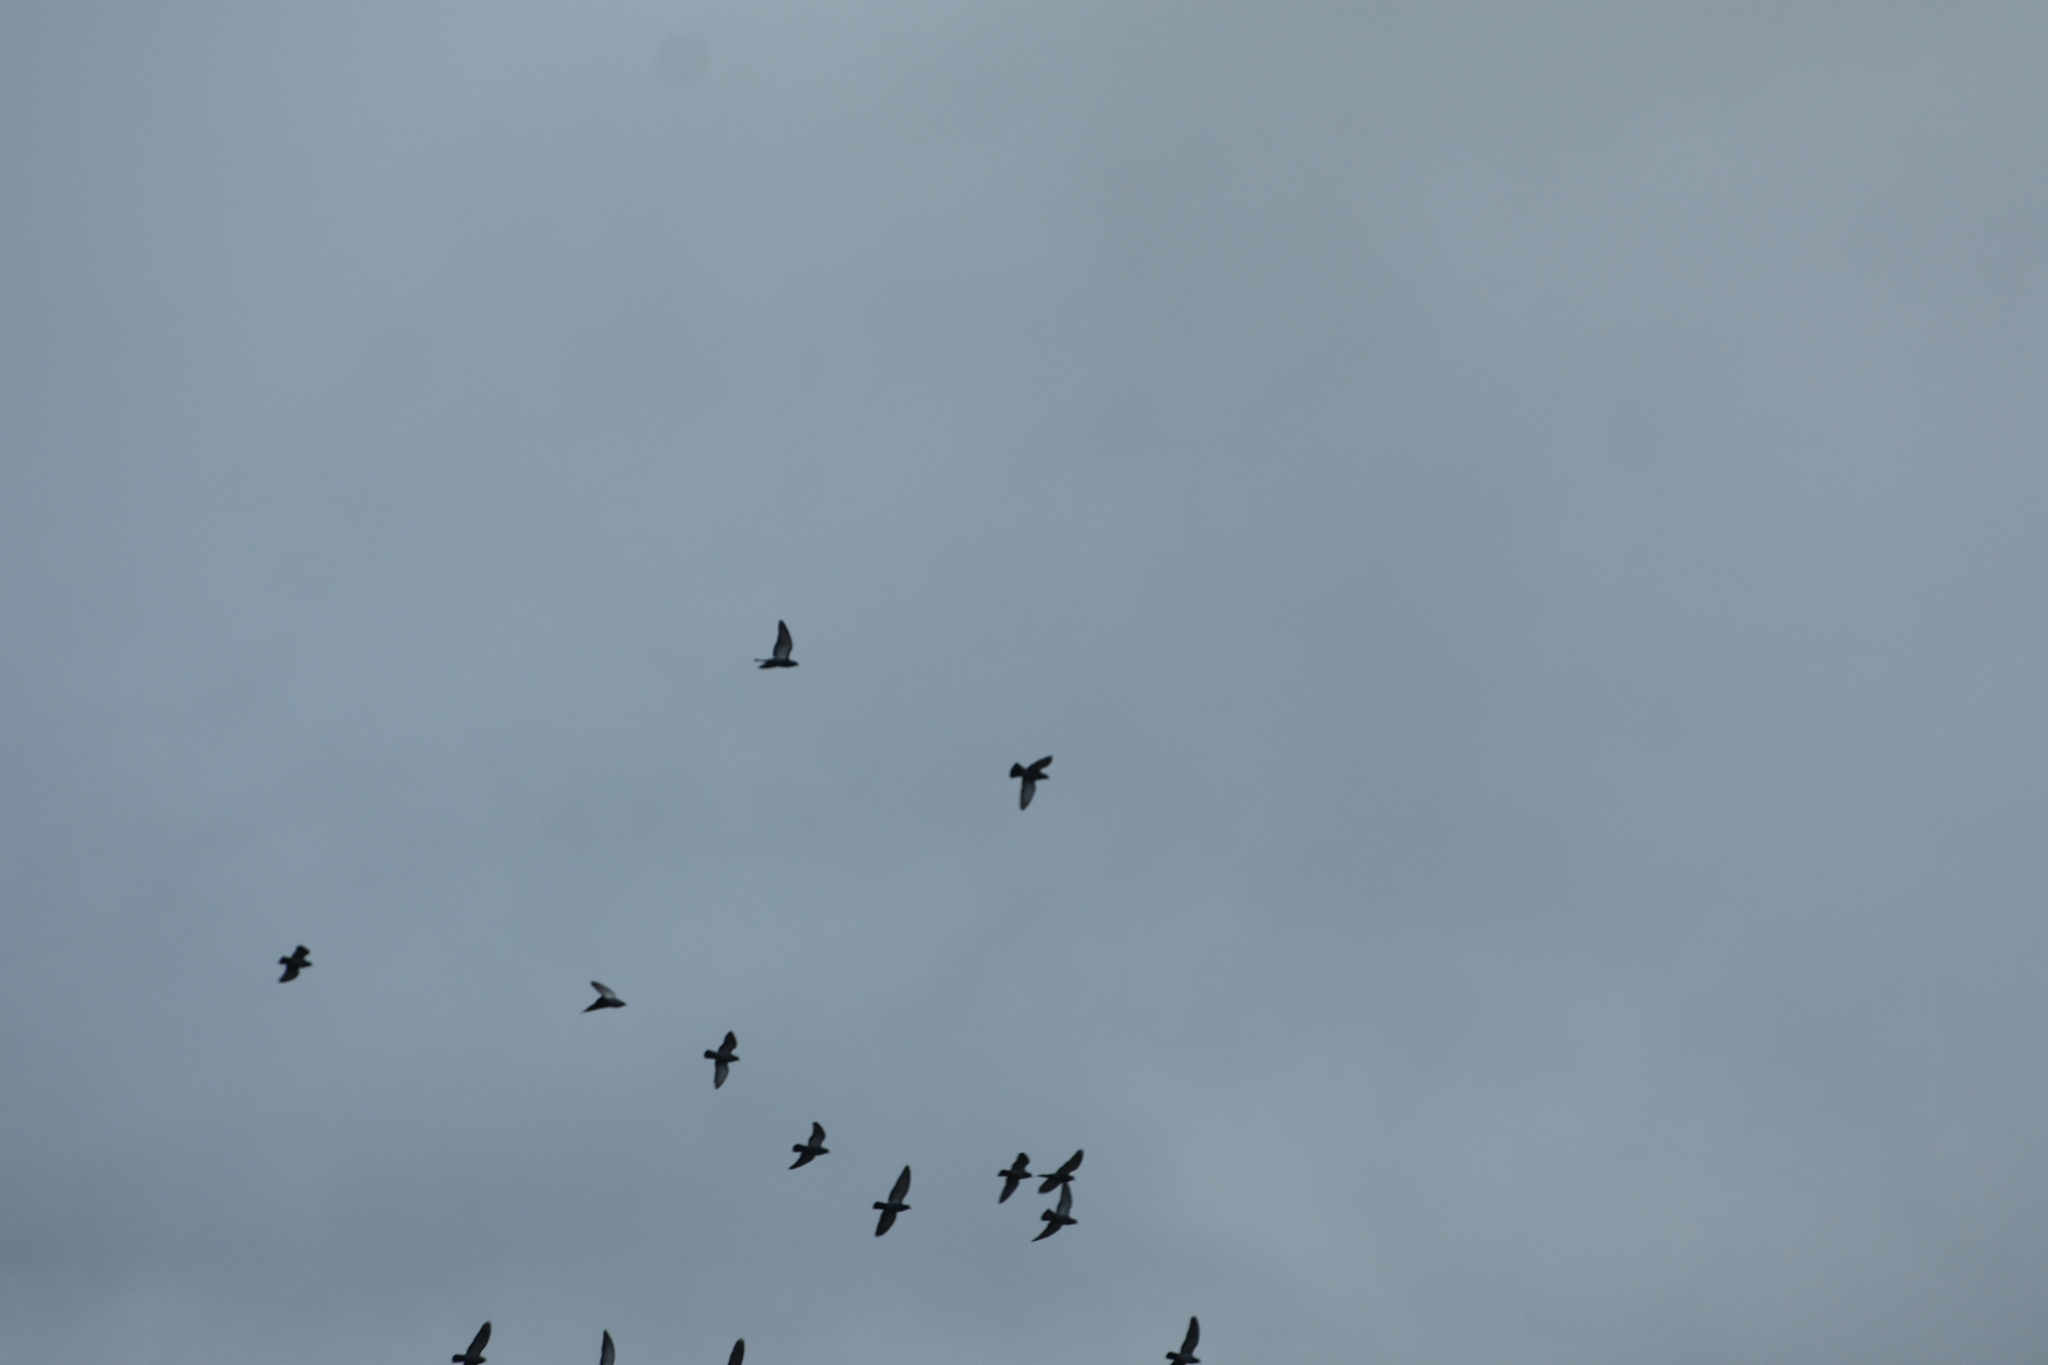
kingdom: Animalia
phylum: Chordata
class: Aves
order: Columbiformes
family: Columbidae
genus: Columba
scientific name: Columba livia
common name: Rock pigeon
